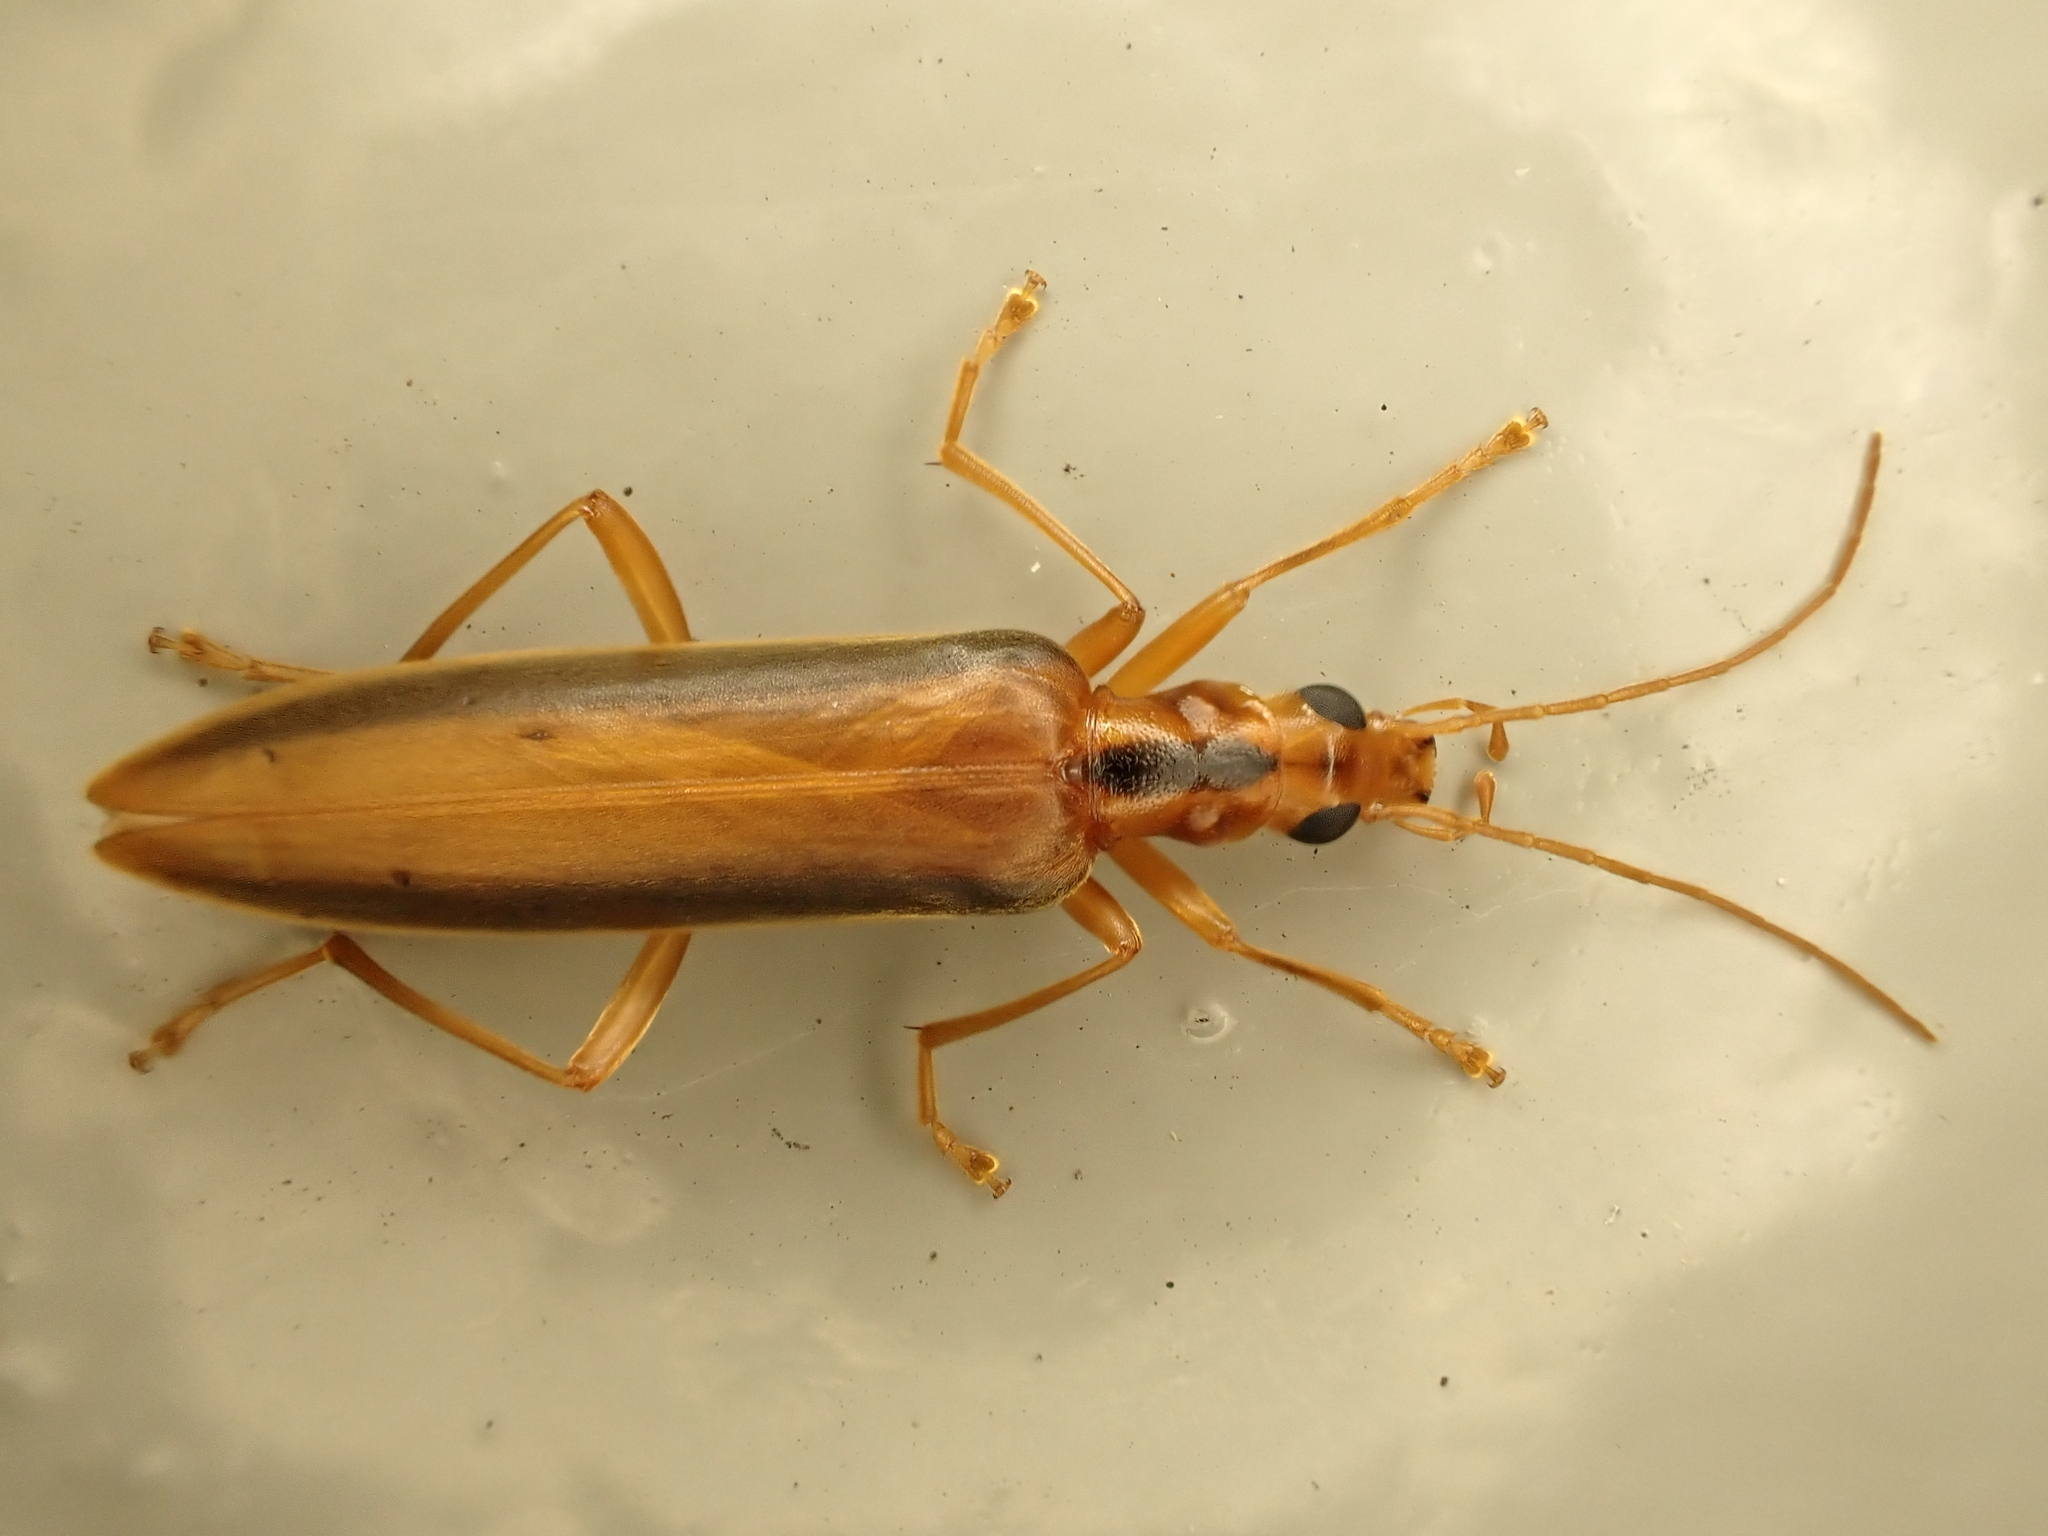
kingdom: Animalia
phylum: Arthropoda
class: Insecta
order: Coleoptera
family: Oedemeridae
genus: Thelyphassa
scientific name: Thelyphassa
